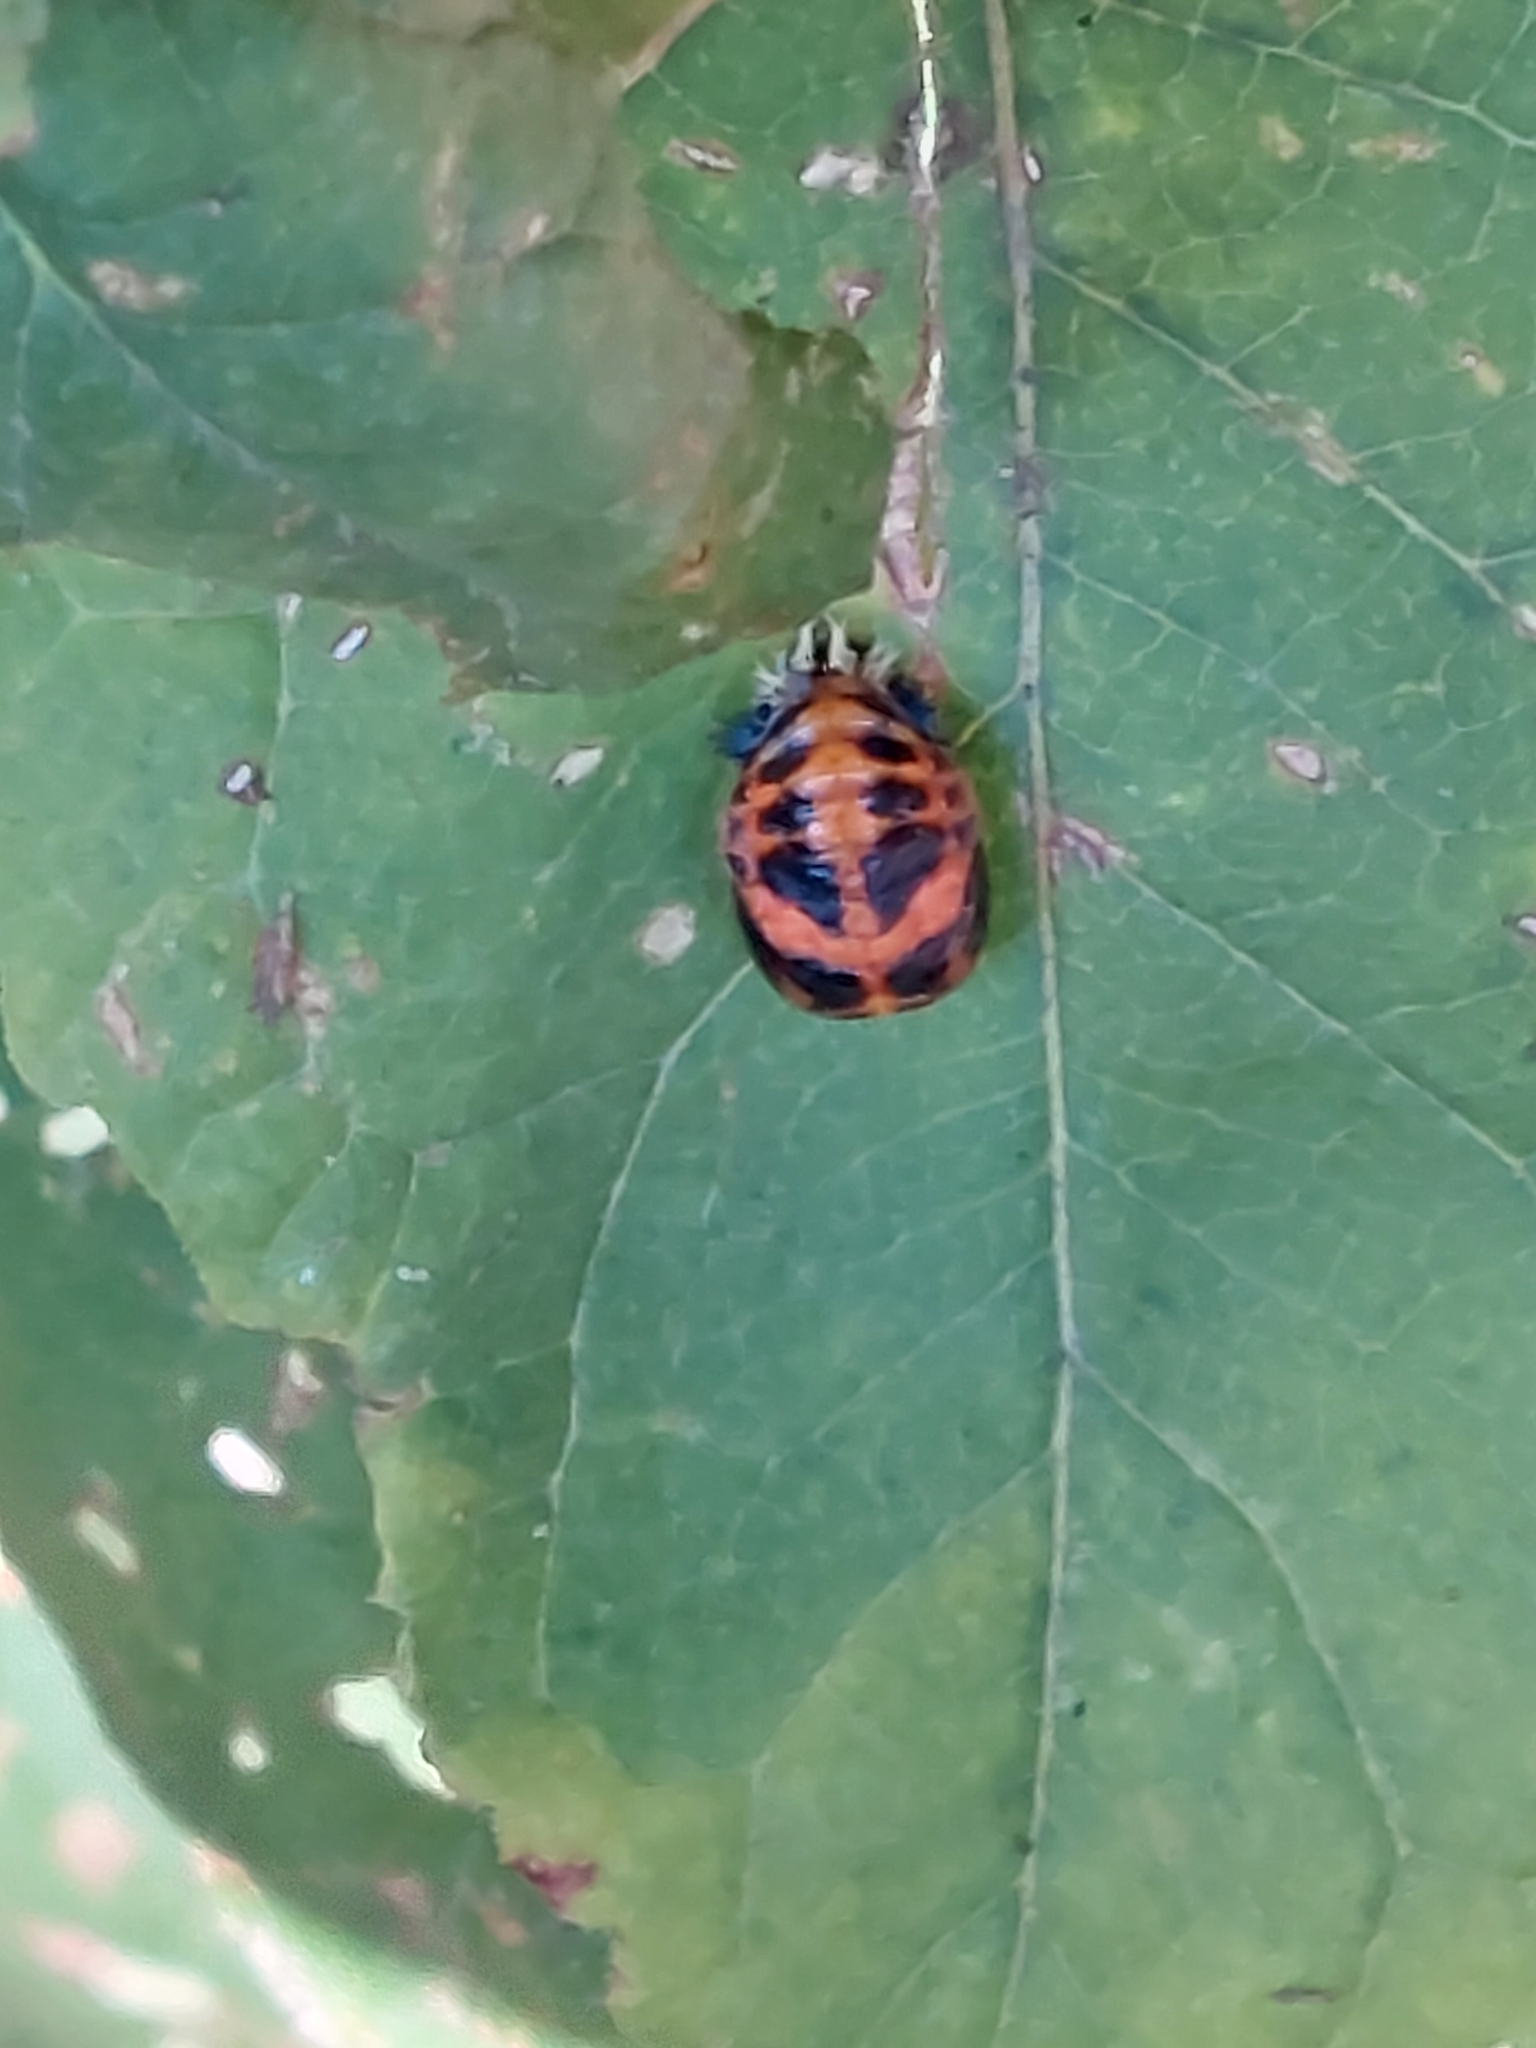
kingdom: Animalia
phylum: Arthropoda
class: Insecta
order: Coleoptera
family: Coccinellidae
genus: Harmonia
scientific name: Harmonia axyridis
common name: Harlequin ladybird
